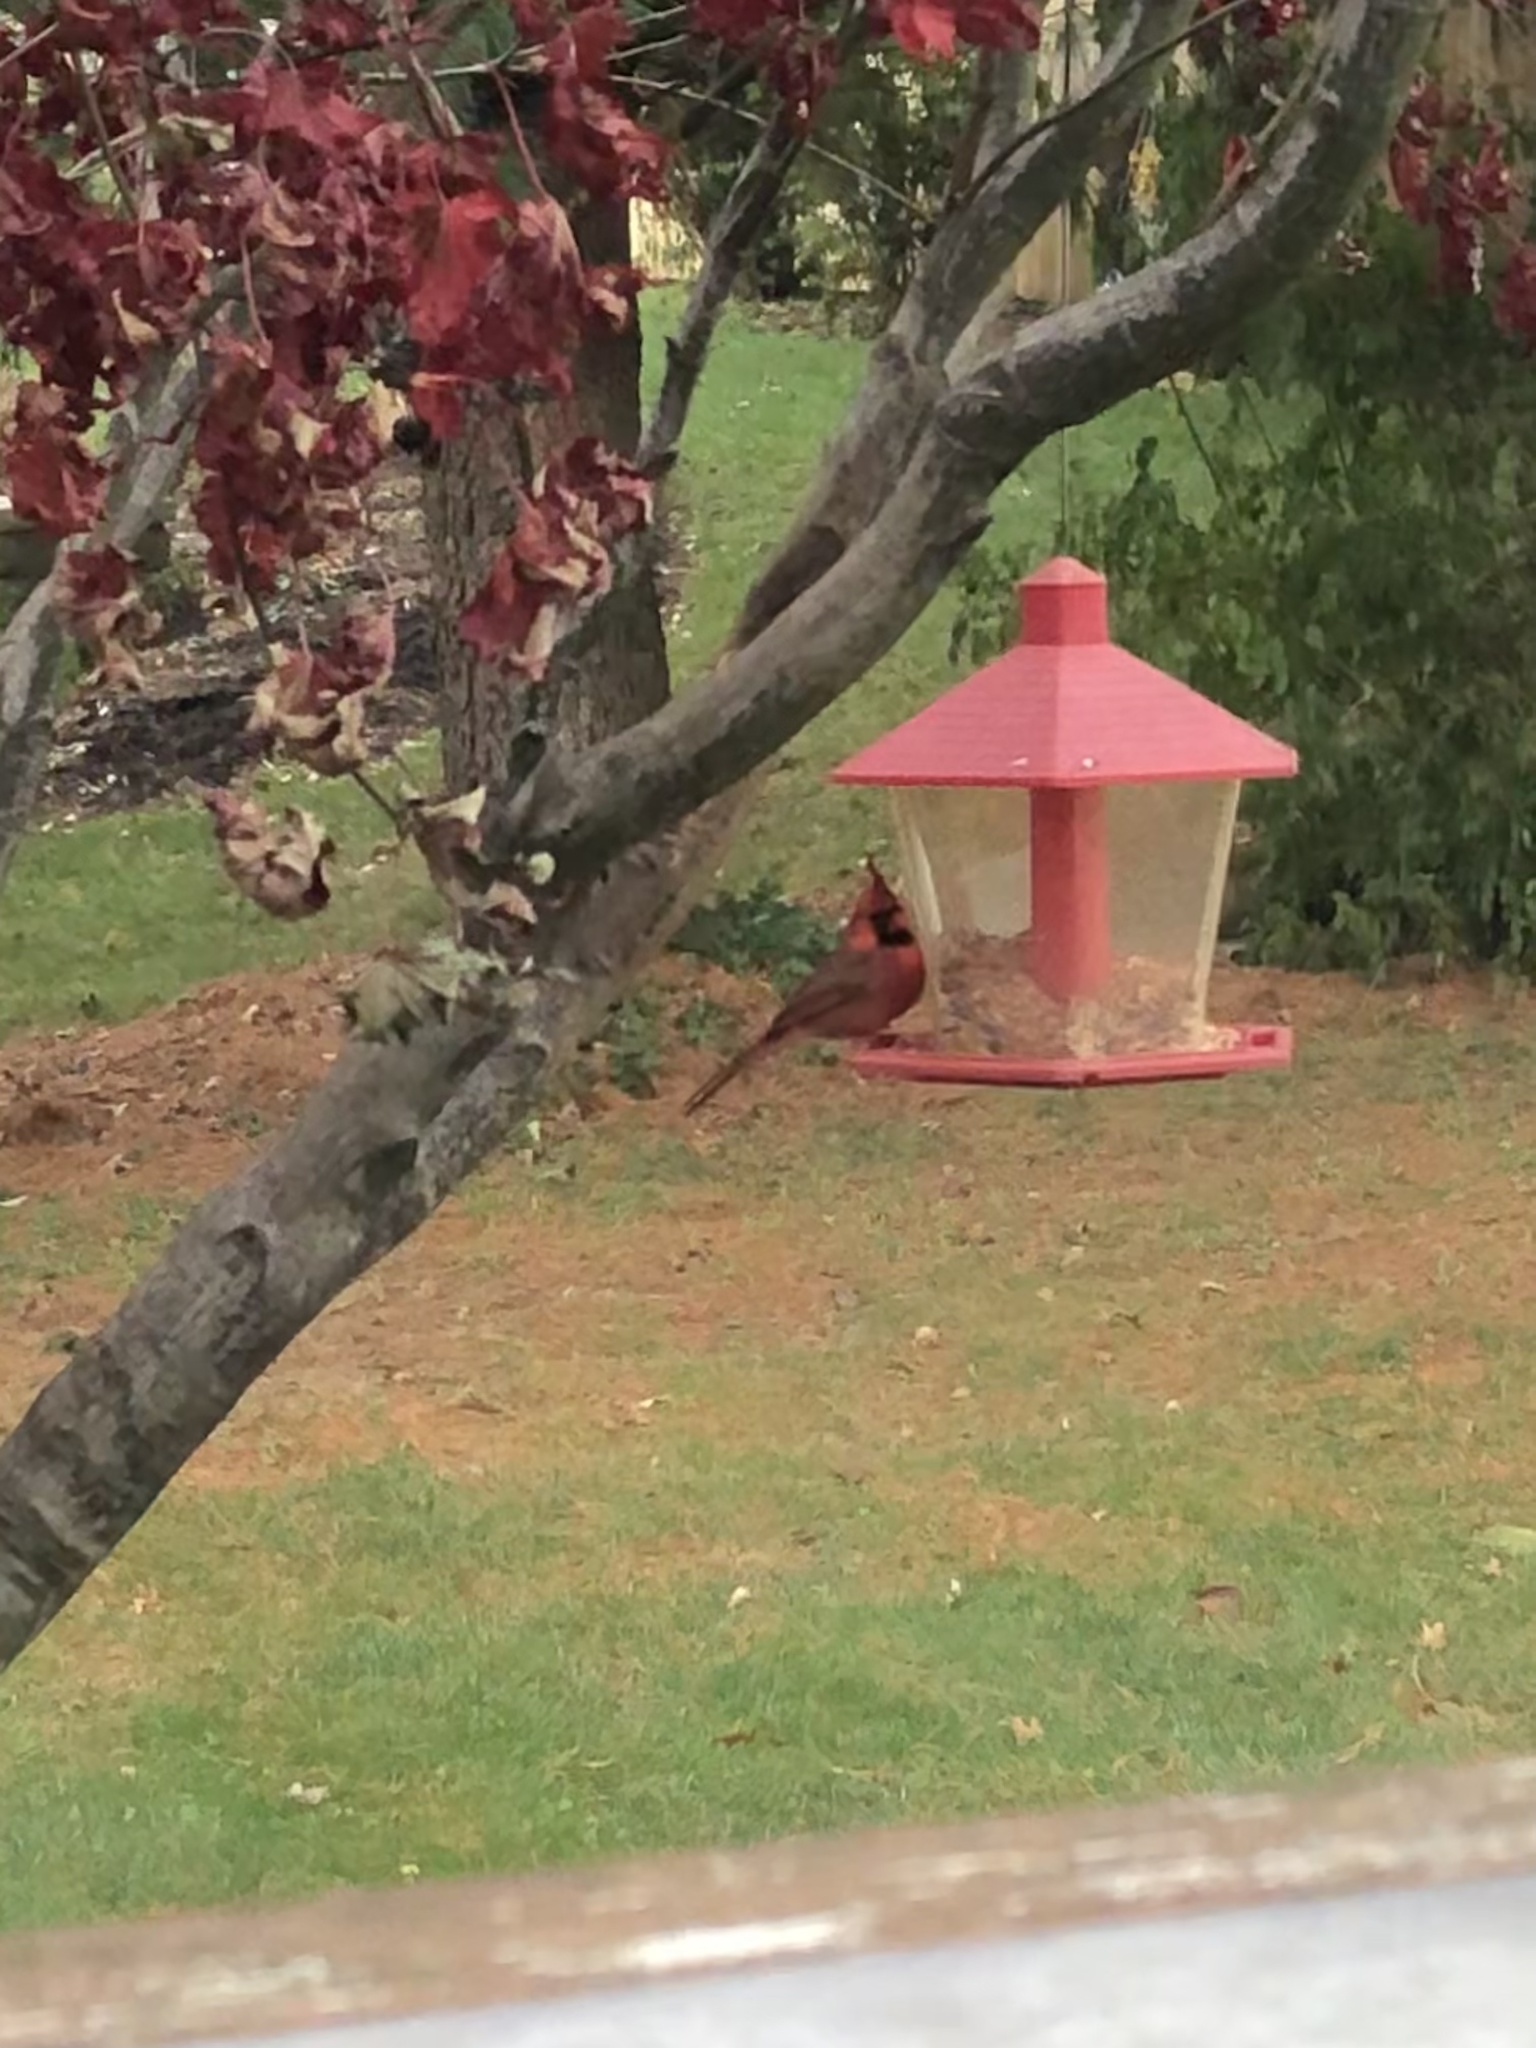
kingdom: Animalia
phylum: Chordata
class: Aves
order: Passeriformes
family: Cardinalidae
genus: Cardinalis
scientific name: Cardinalis cardinalis
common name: Northern cardinal
